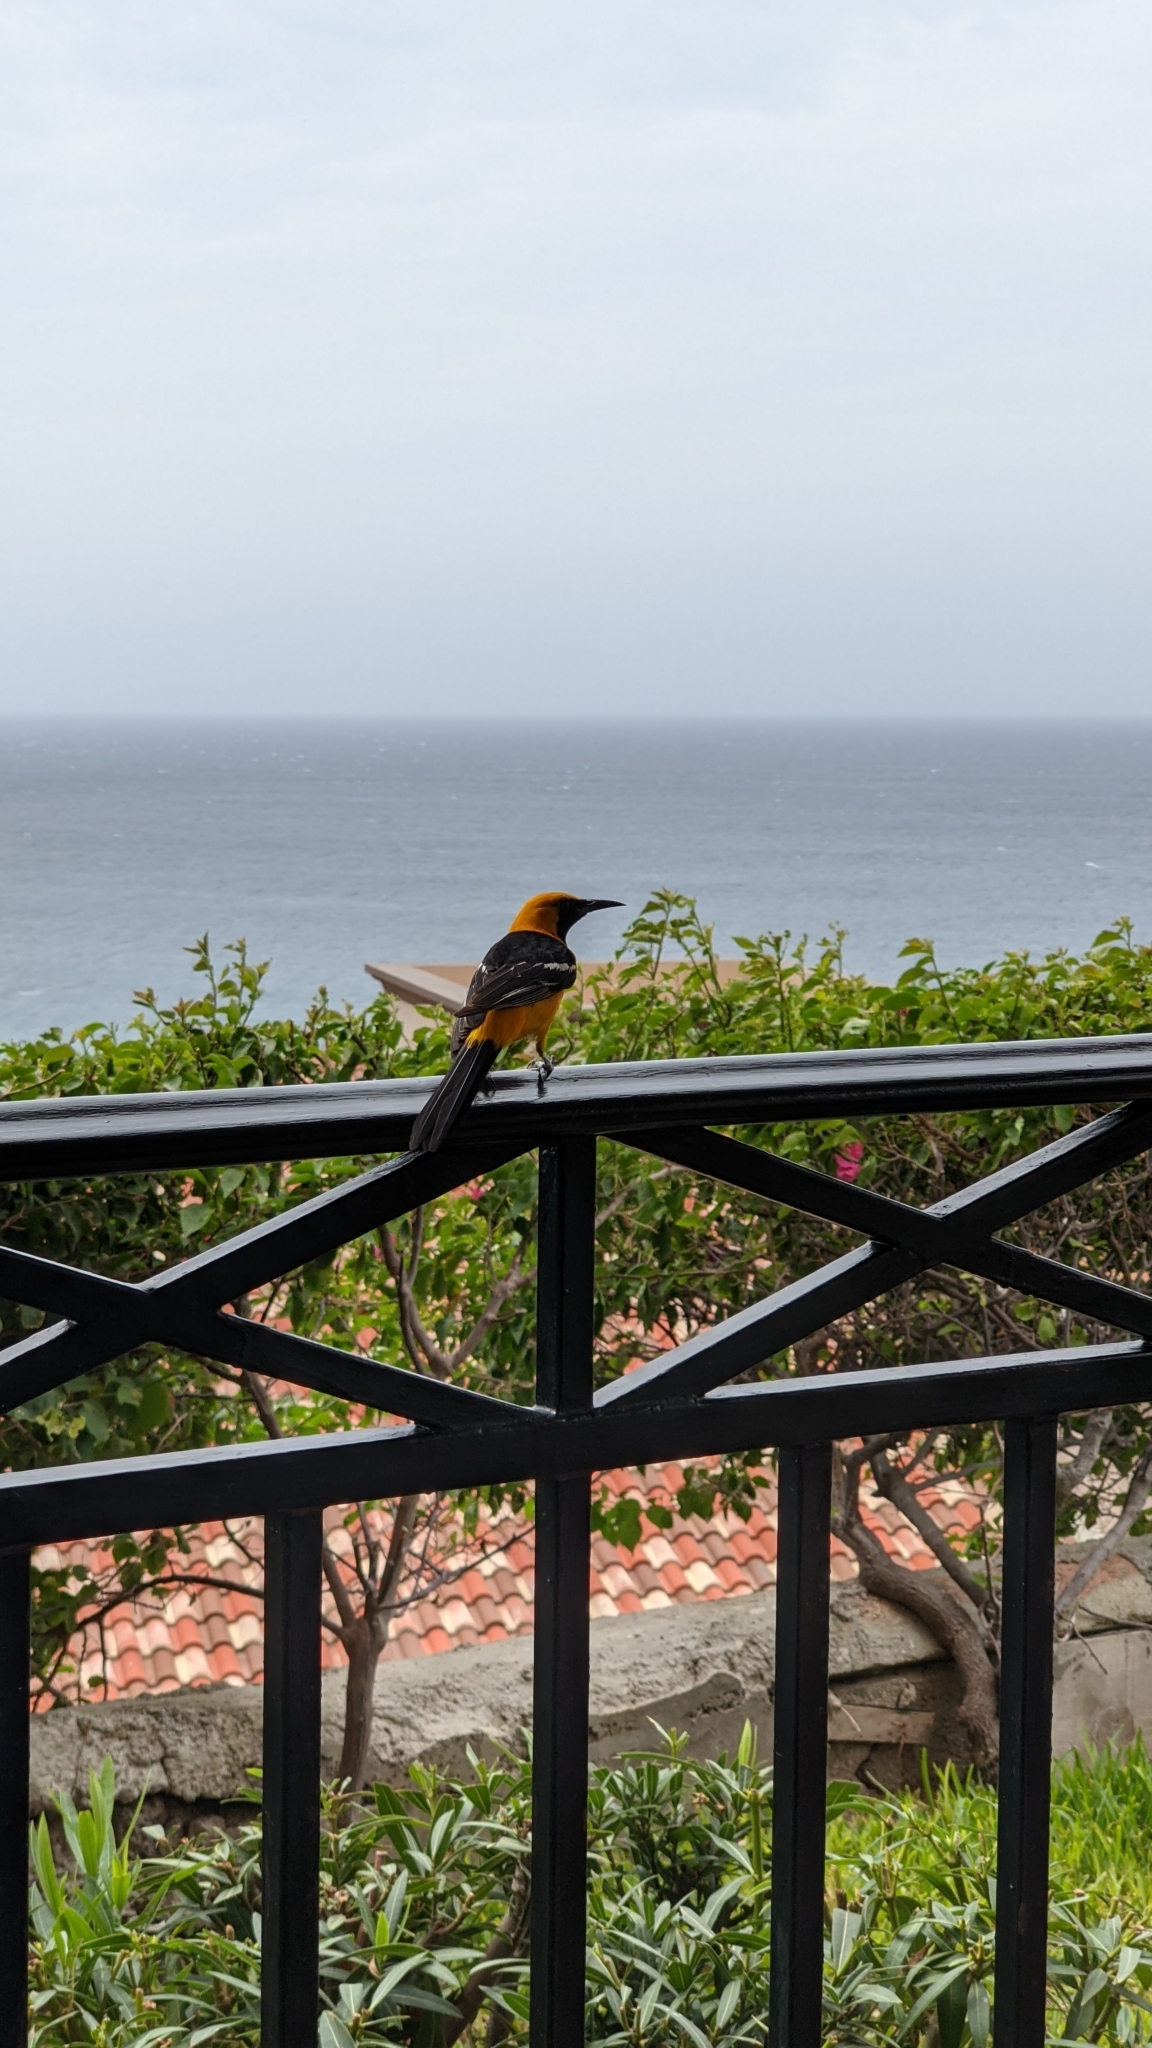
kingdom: Animalia
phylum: Chordata
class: Aves
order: Passeriformes
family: Icteridae
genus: Icterus
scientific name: Icterus cucullatus
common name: Hooded oriole
